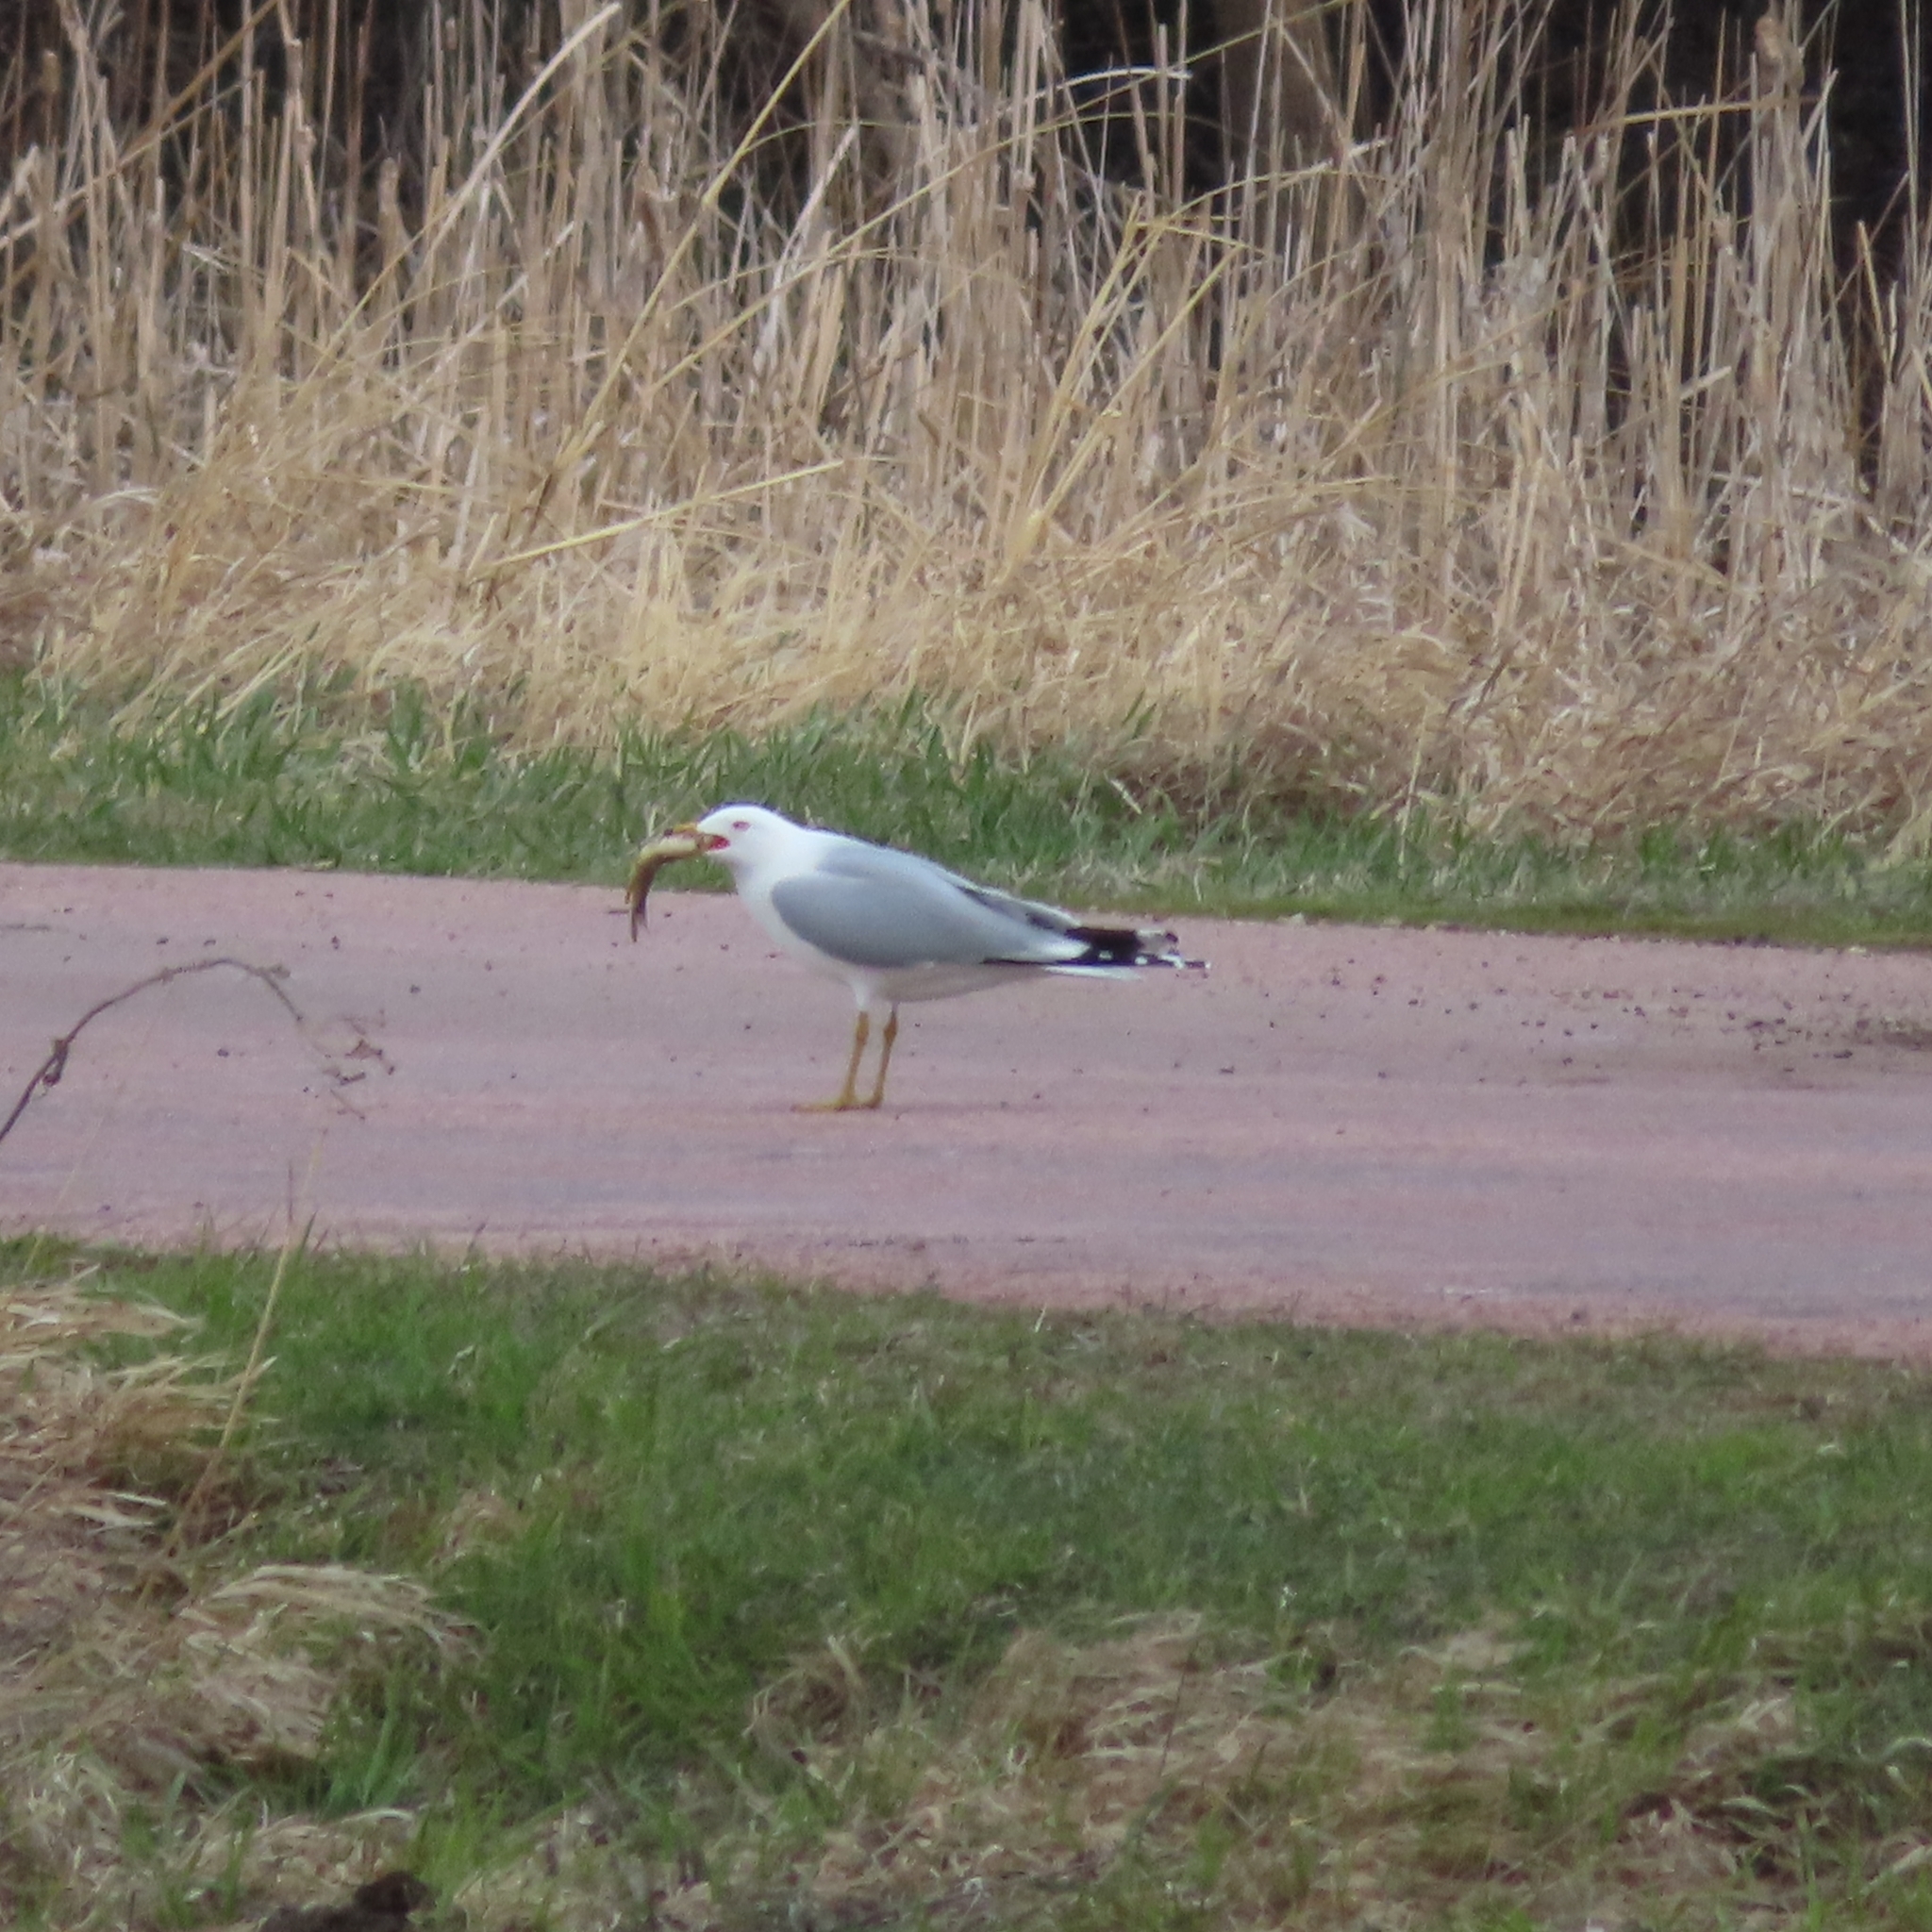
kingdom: Animalia
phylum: Chordata
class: Aves
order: Charadriiformes
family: Laridae
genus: Larus
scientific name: Larus delawarensis
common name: Ring-billed gull
